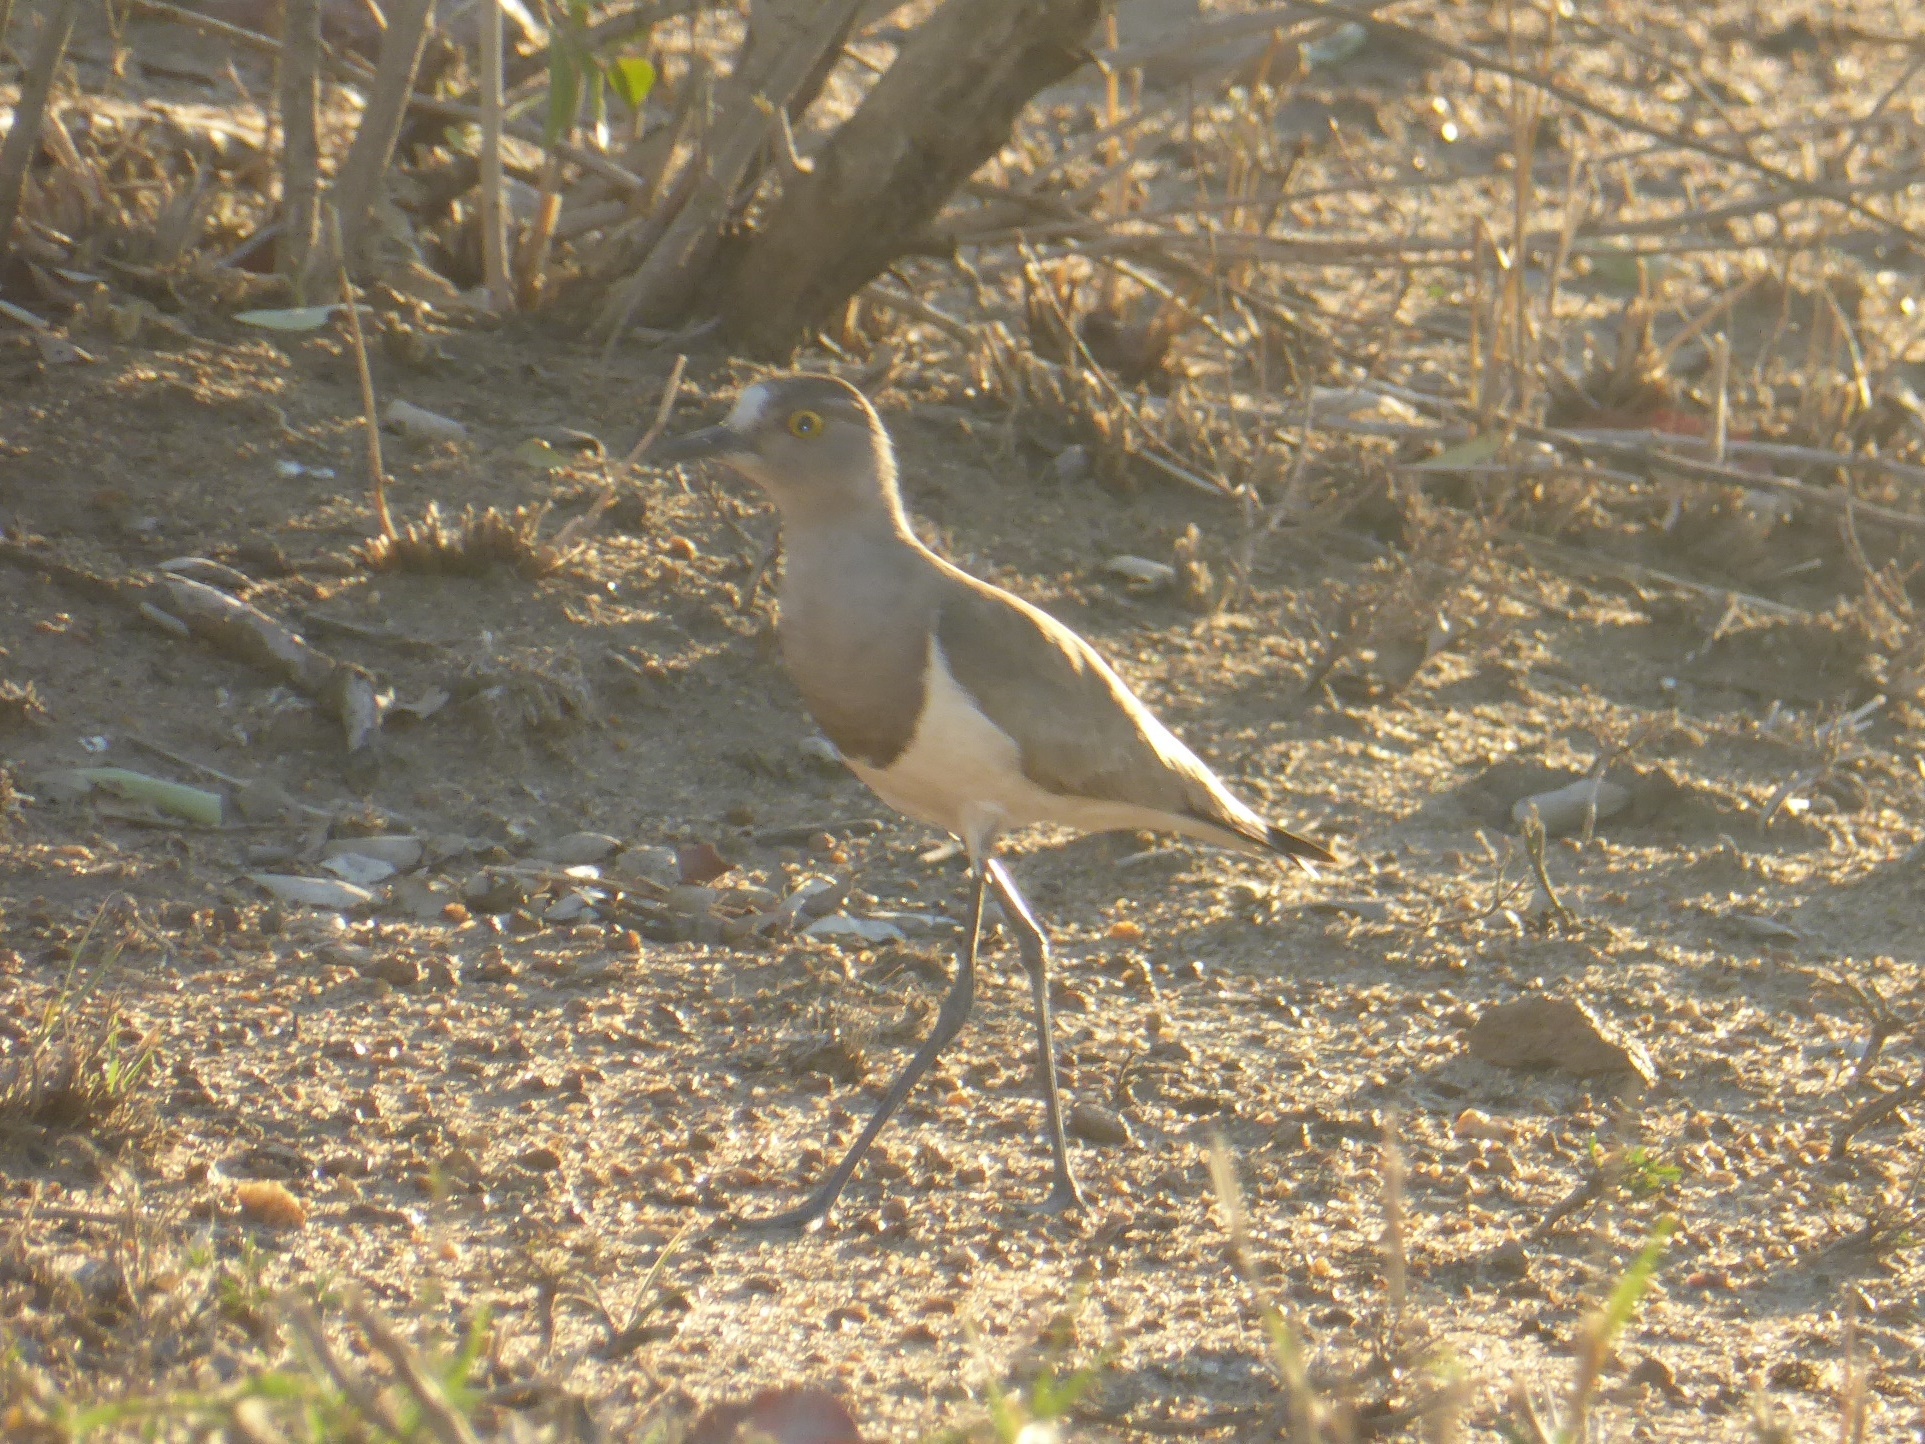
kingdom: Animalia
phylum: Chordata
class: Aves
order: Charadriiformes
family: Charadriidae
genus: Vanellus
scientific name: Vanellus lugubris
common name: Senegal lapwing
